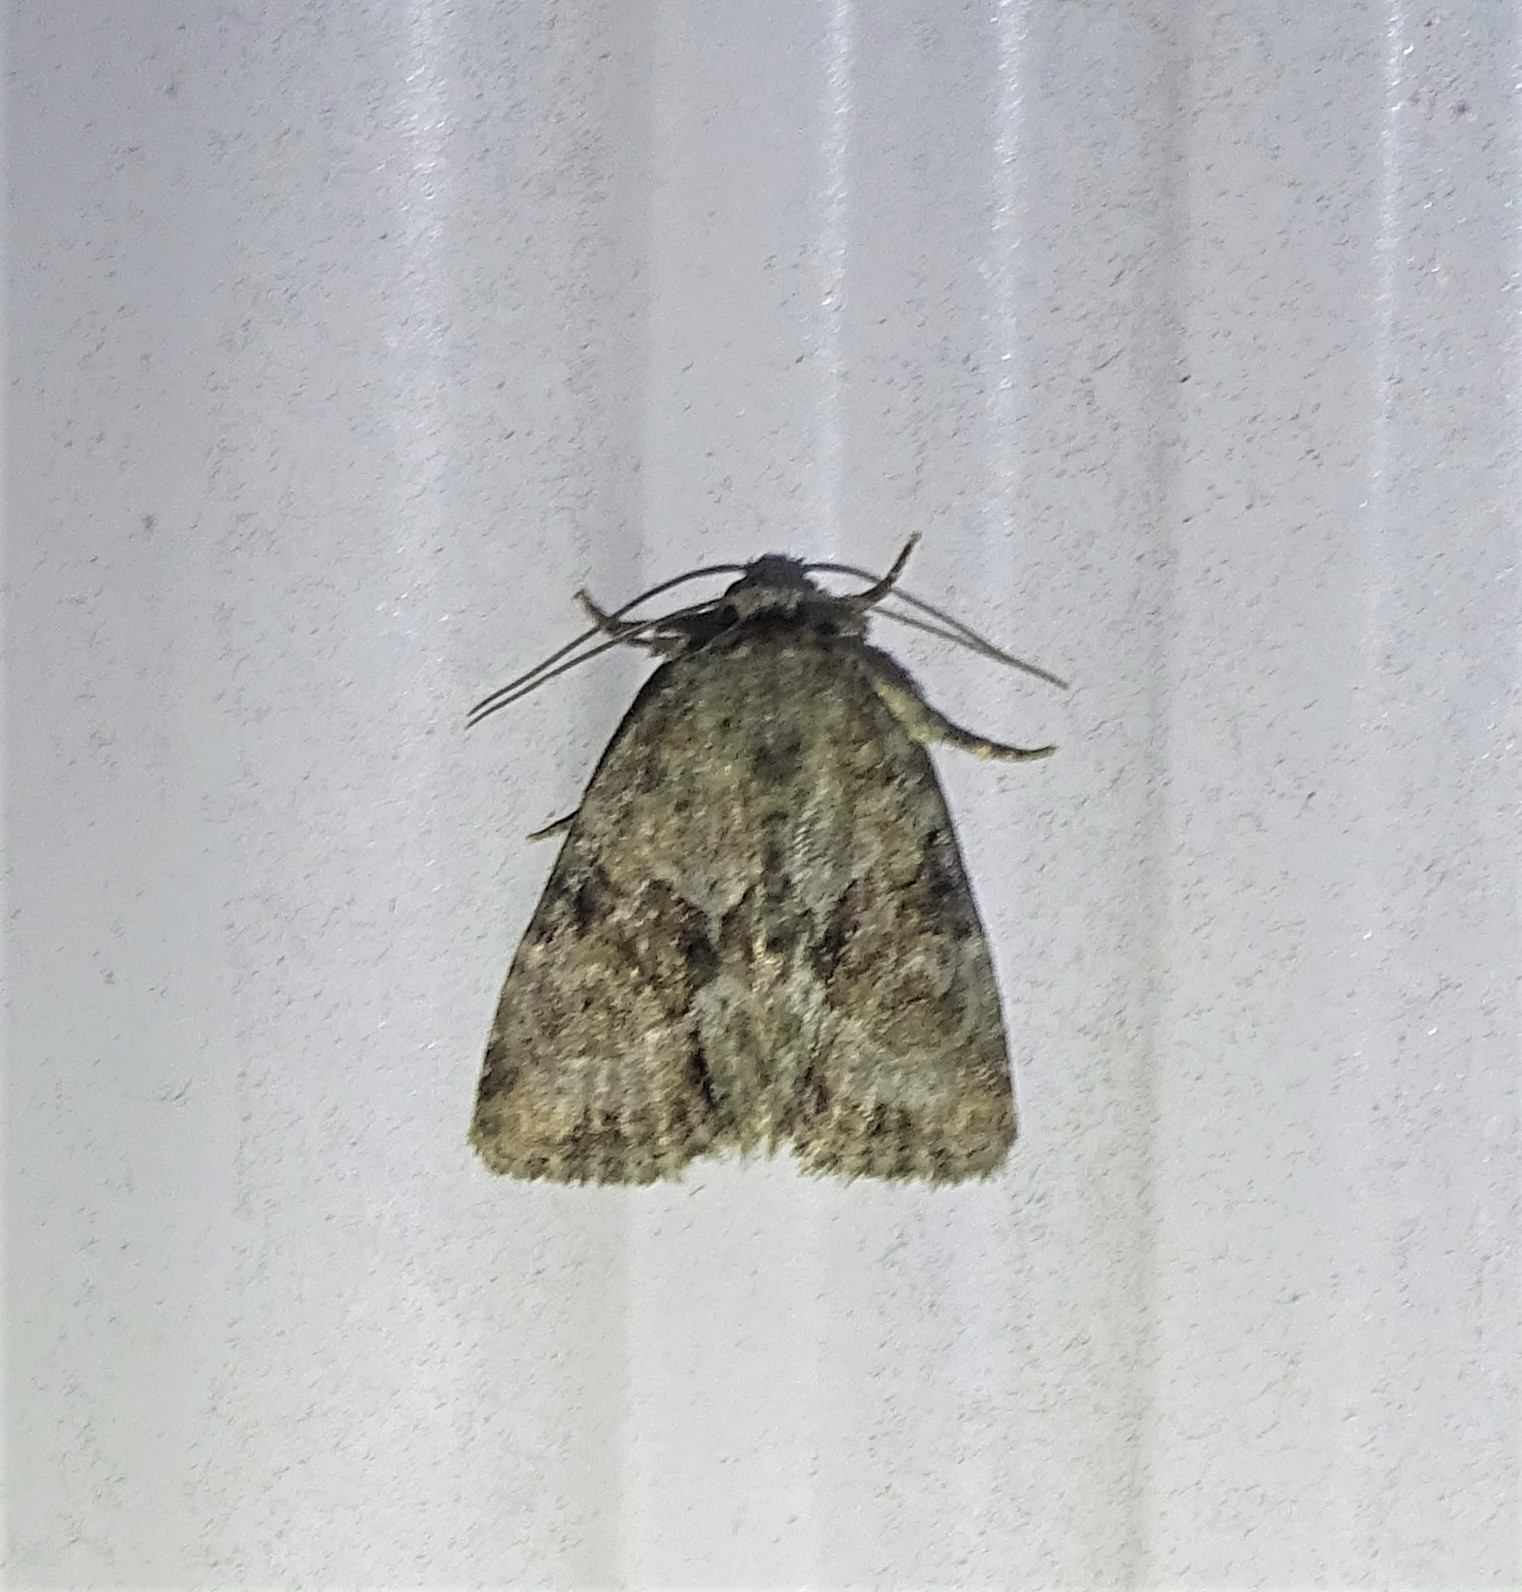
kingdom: Animalia
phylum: Arthropoda
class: Insecta
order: Lepidoptera
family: Noctuidae
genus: Neoligia
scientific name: Neoligia exhausta
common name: Exhausted brocade
